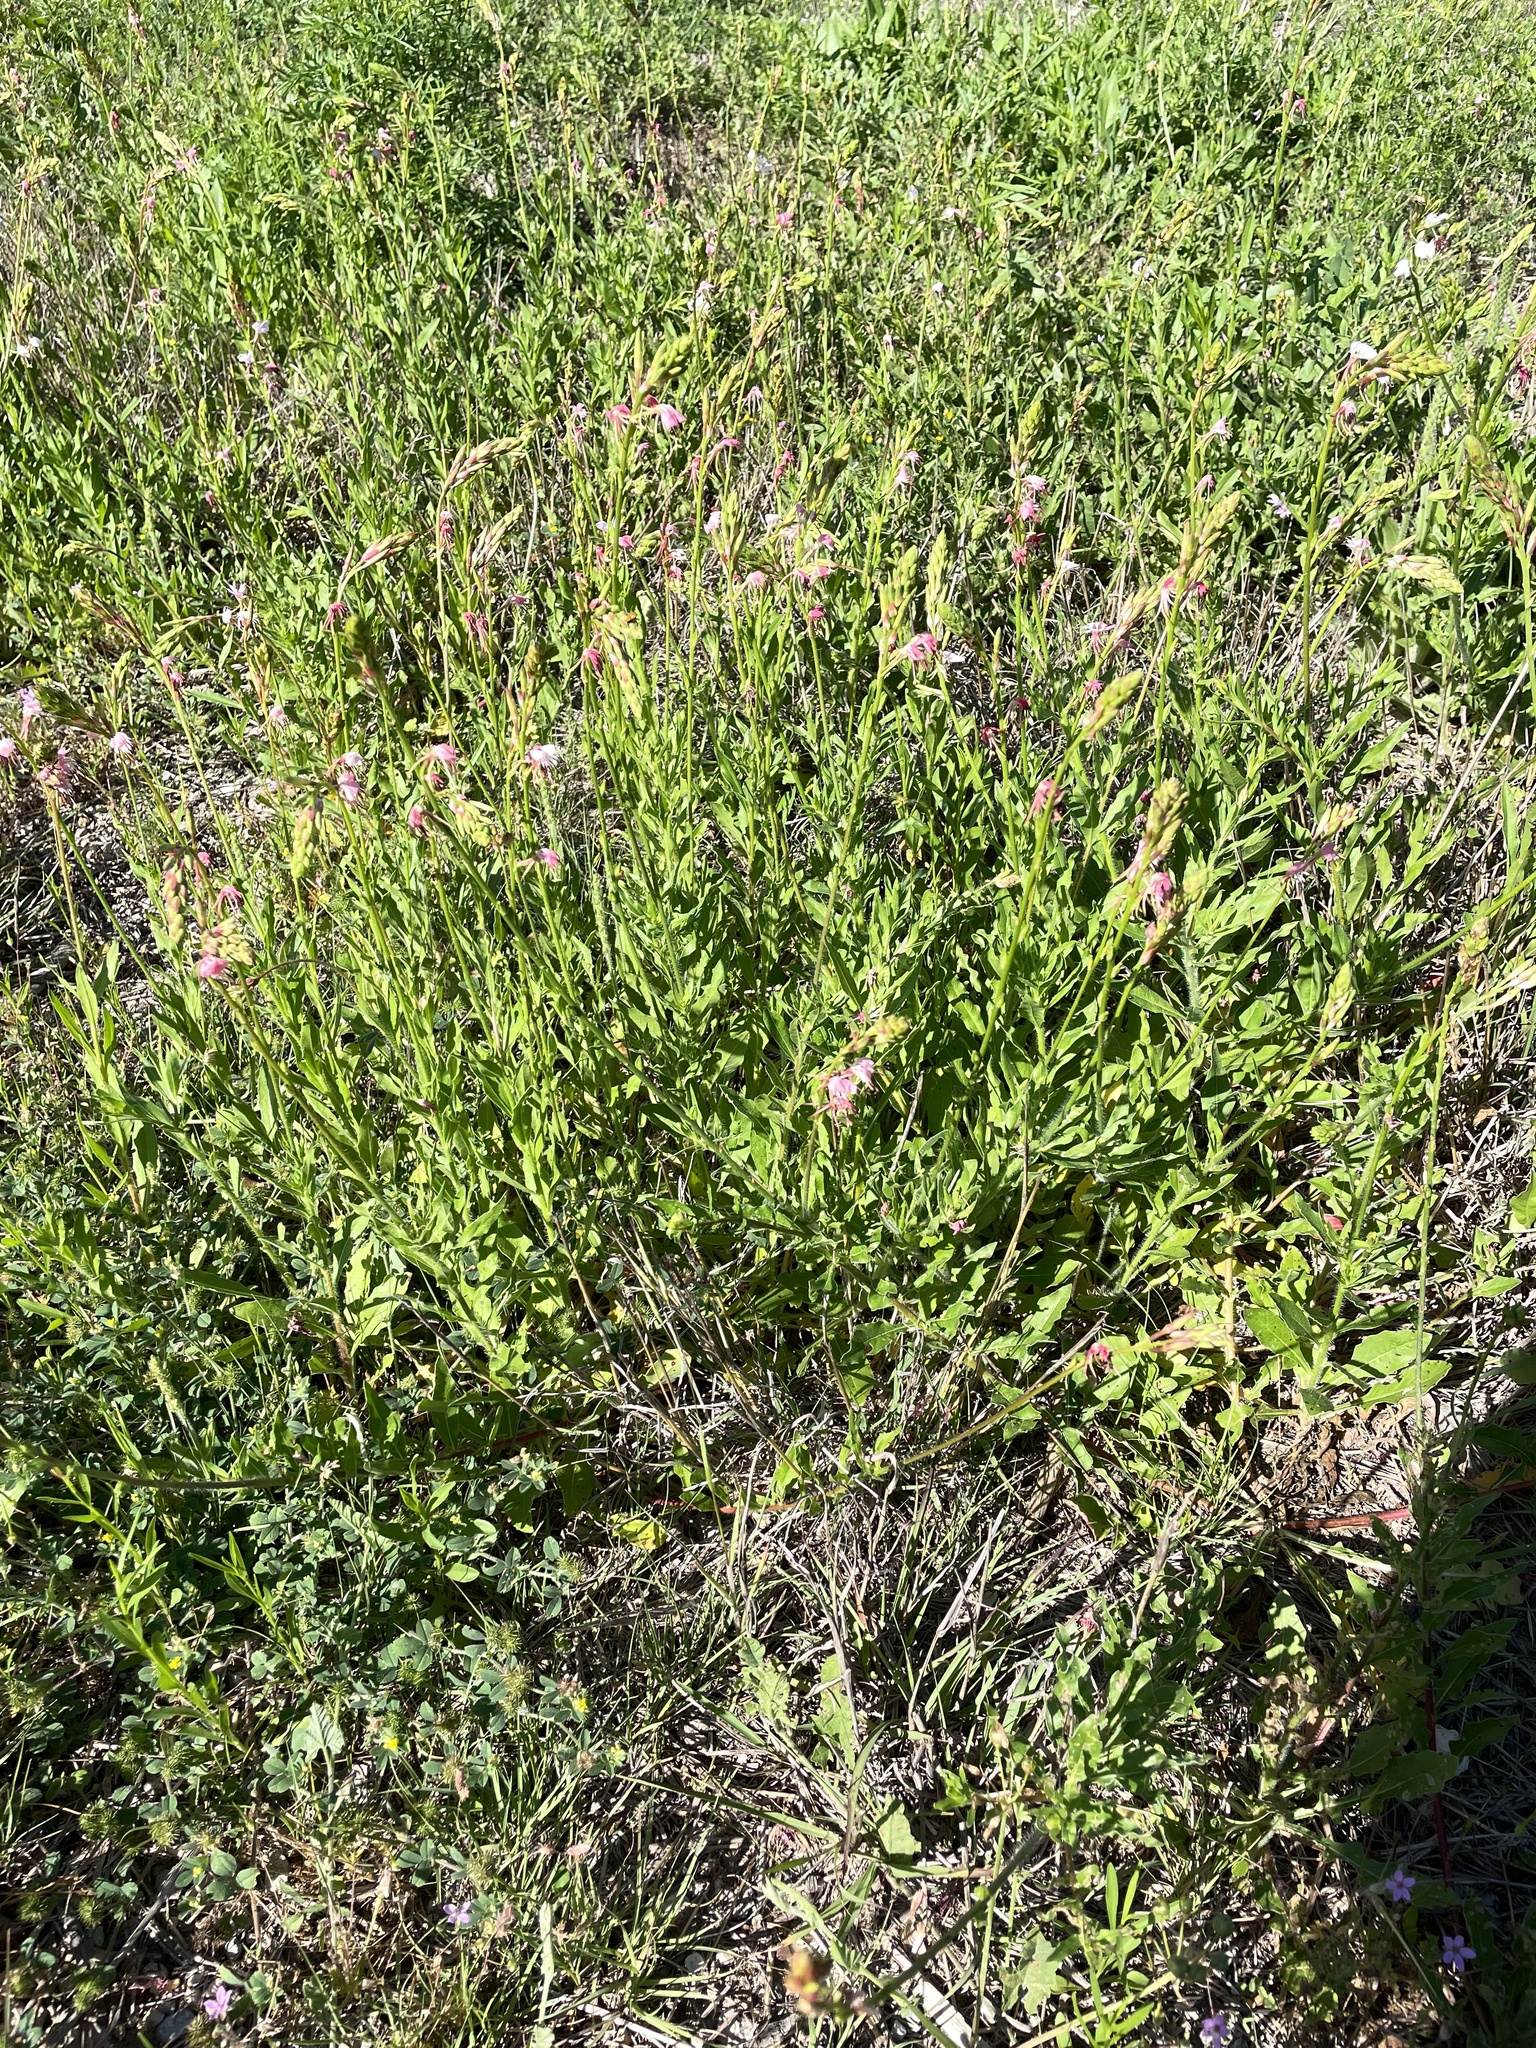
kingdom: Plantae
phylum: Tracheophyta
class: Magnoliopsida
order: Myrtales
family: Onagraceae
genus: Oenothera
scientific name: Oenothera suffulta
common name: Kisses
